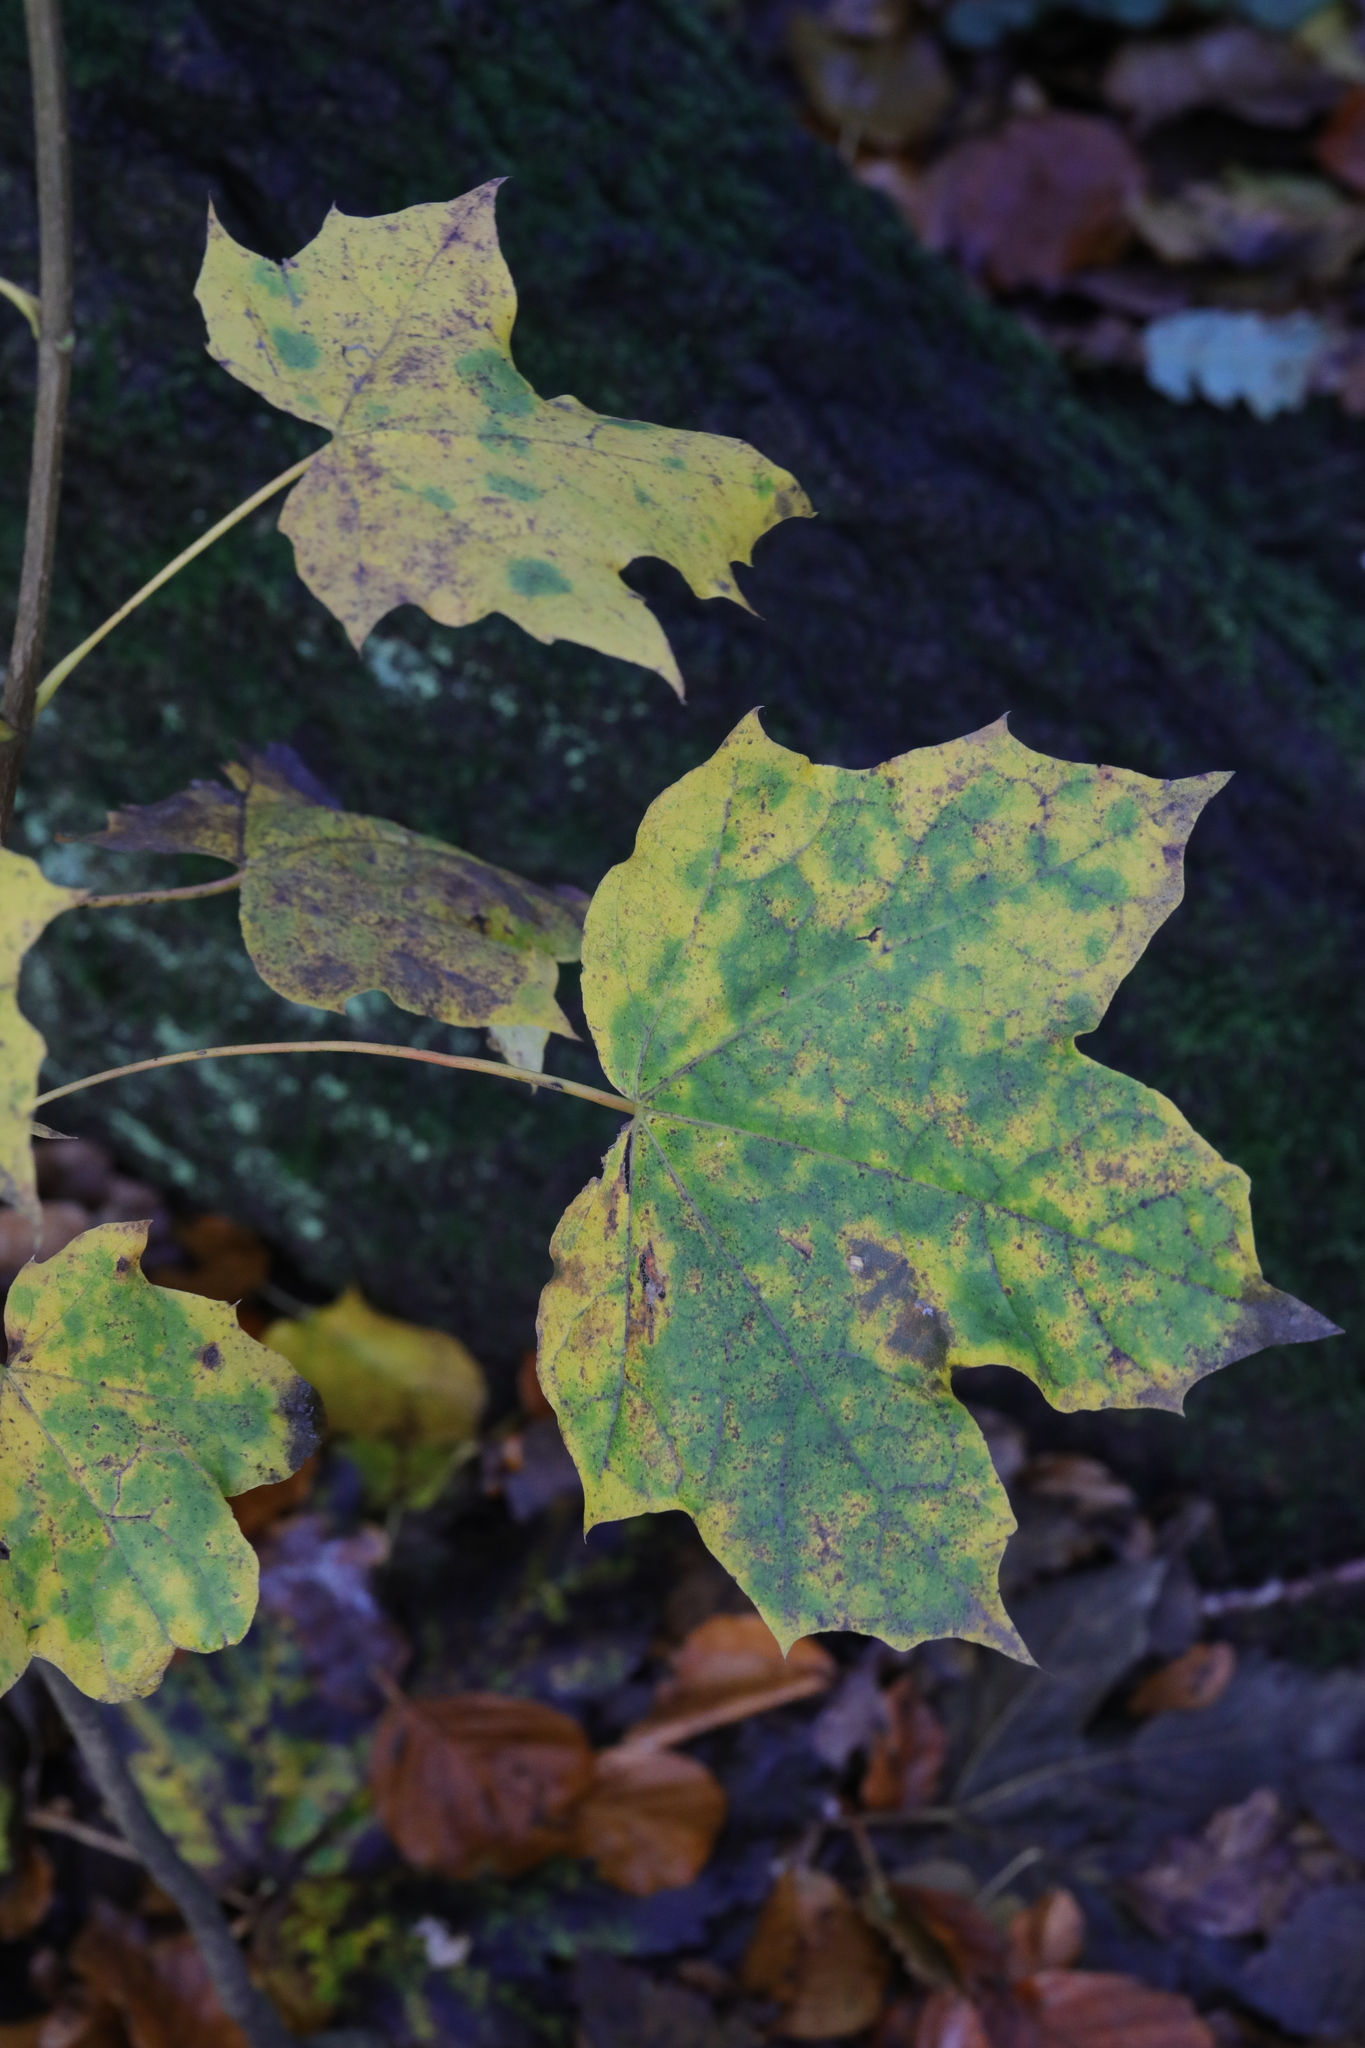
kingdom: Plantae
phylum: Tracheophyta
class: Magnoliopsida
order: Sapindales
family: Sapindaceae
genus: Acer
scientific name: Acer platanoides
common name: Norway maple
